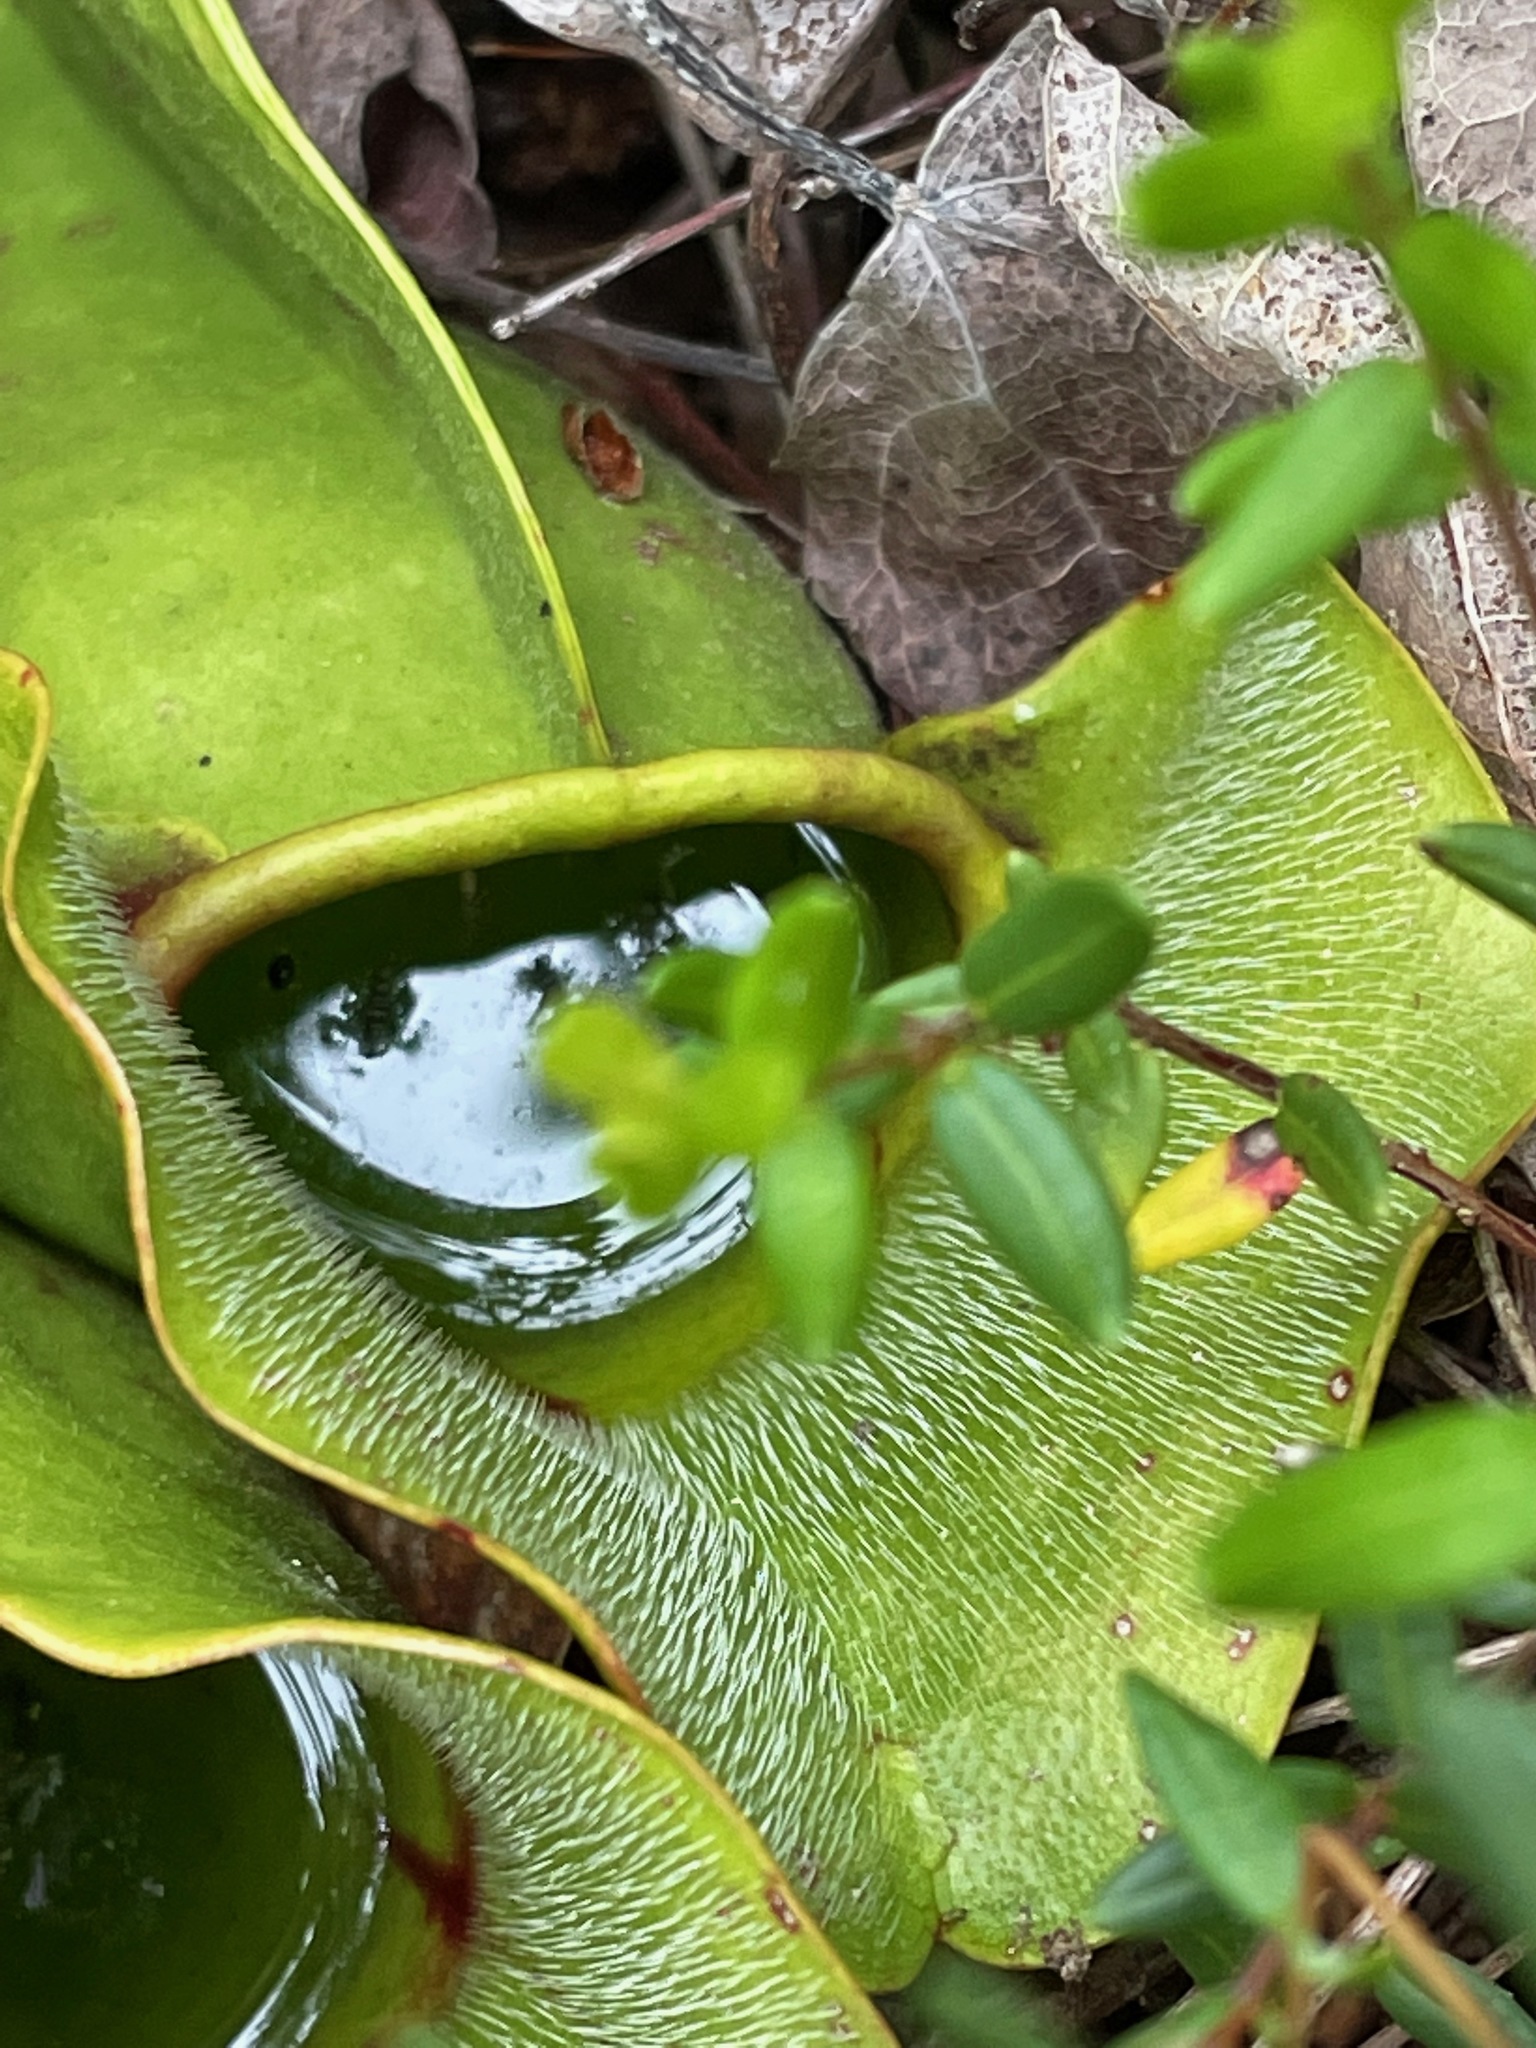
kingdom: Plantae
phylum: Tracheophyta
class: Magnoliopsida
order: Ericales
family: Sarraceniaceae
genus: Sarracenia
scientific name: Sarracenia purpurea
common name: Pitcherplant
